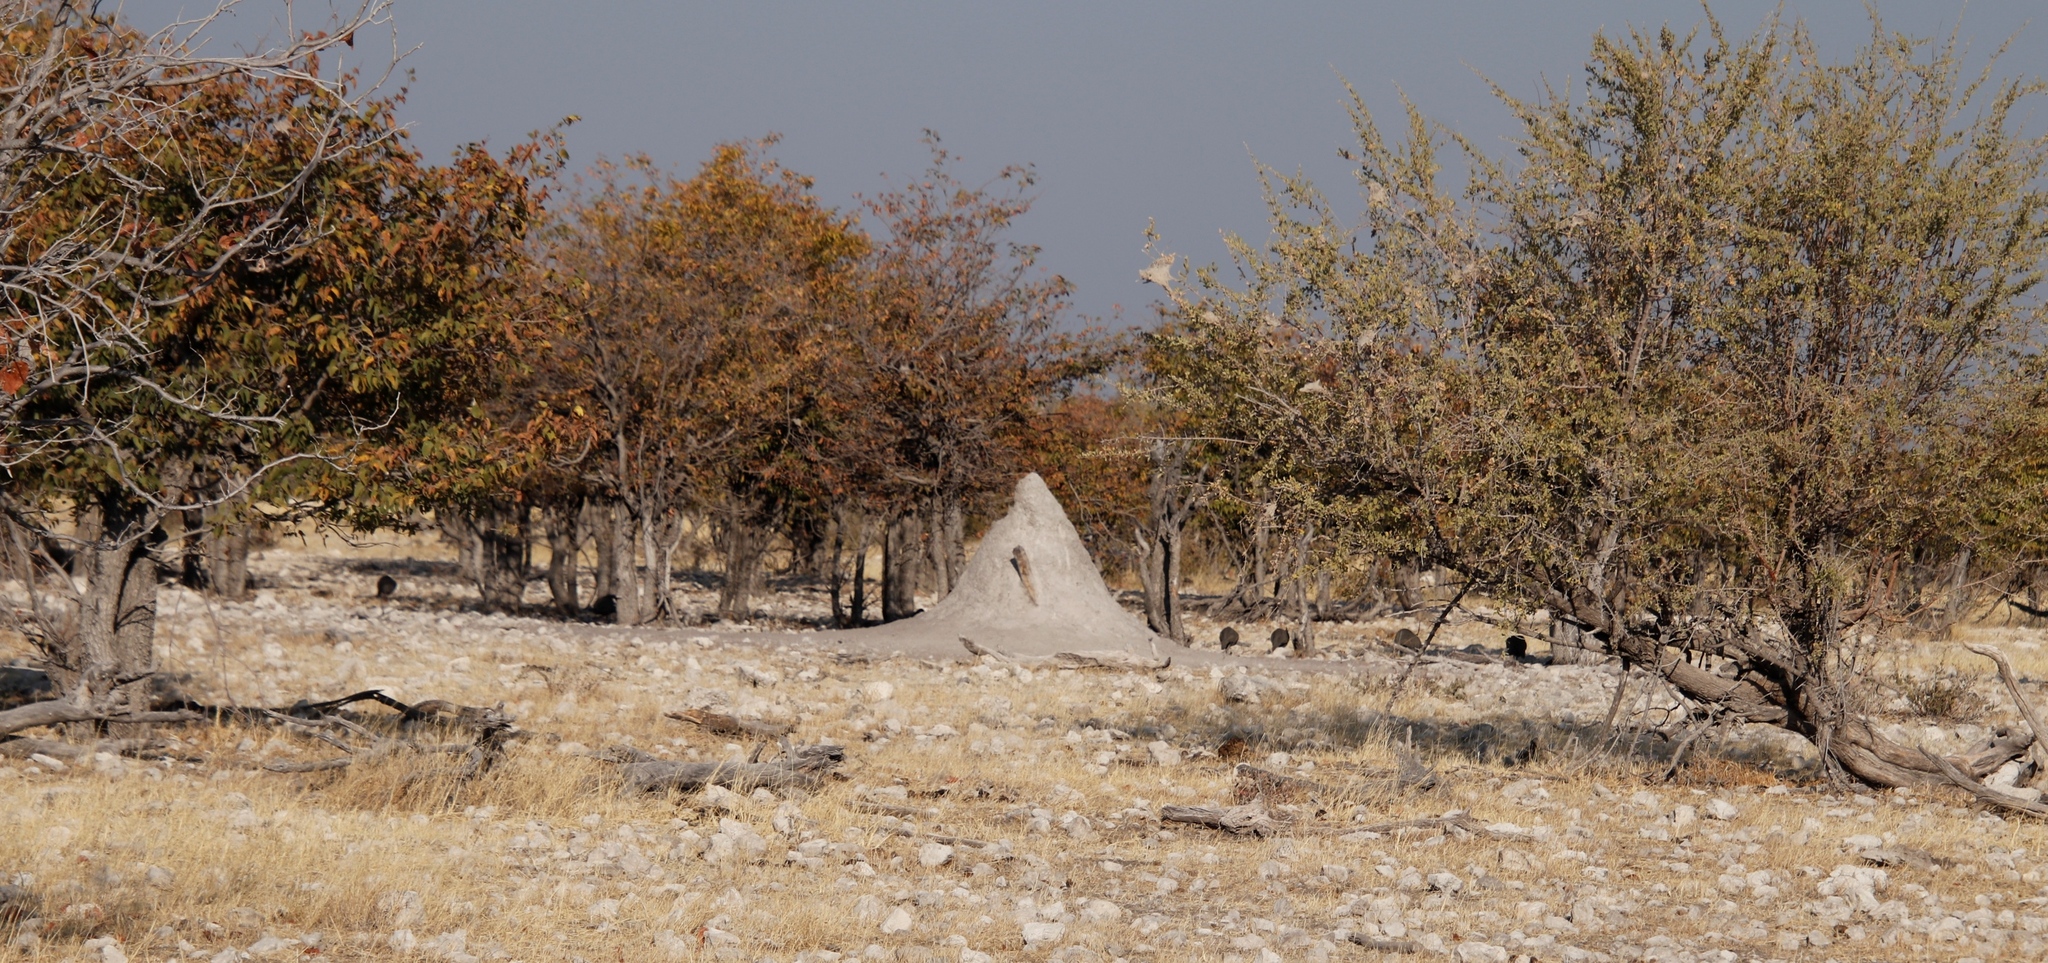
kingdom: Plantae
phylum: Tracheophyta
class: Magnoliopsida
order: Fabales
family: Fabaceae
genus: Colophospermum
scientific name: Colophospermum mopane
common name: Mopane
